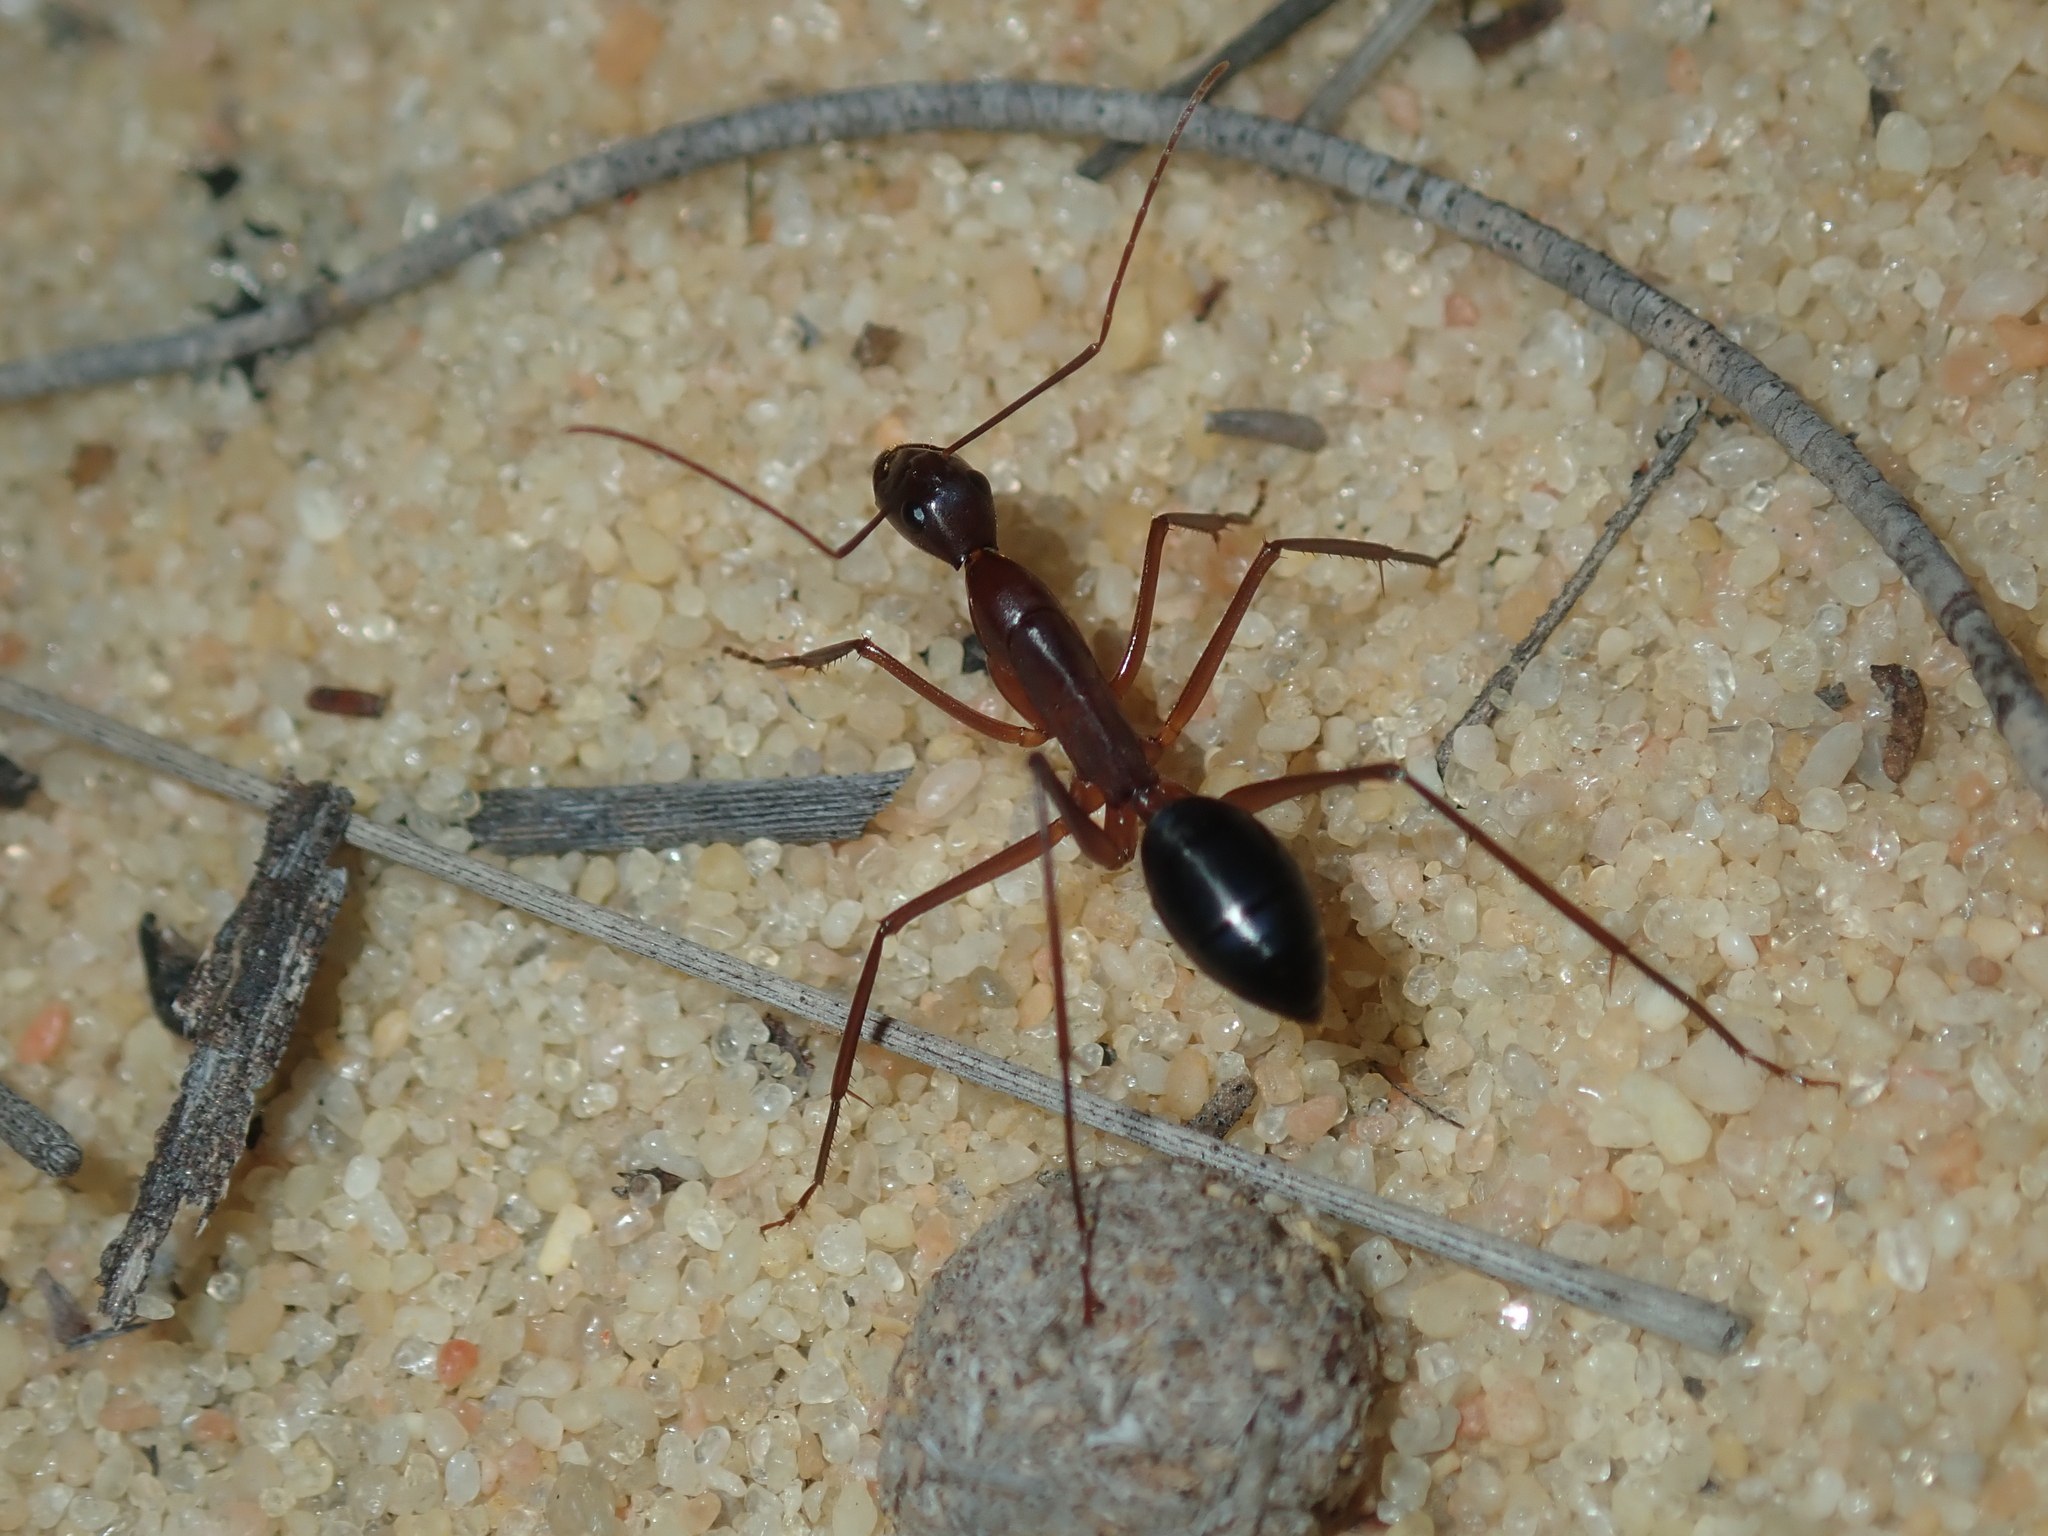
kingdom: Animalia
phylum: Arthropoda
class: Insecta
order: Hymenoptera
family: Formicidae
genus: Camponotus
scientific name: Camponotus rufus
